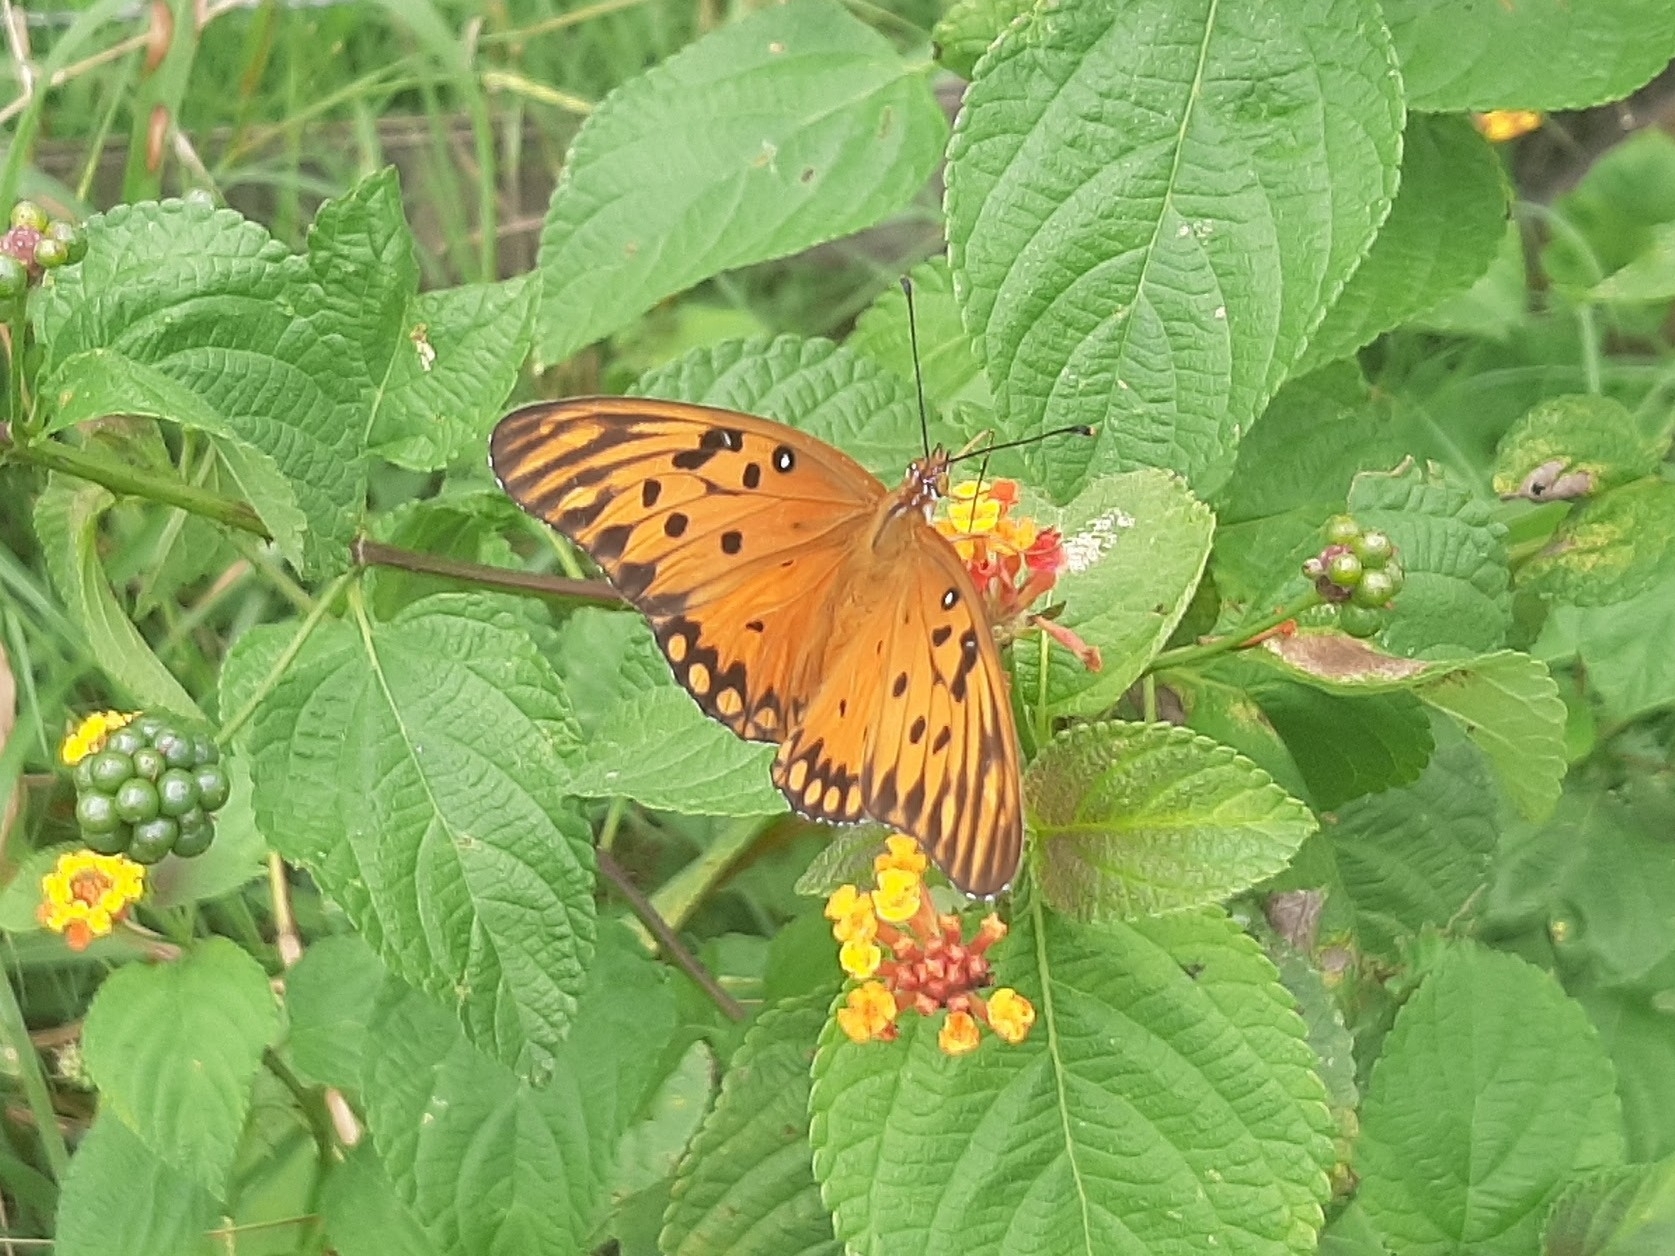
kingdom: Animalia
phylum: Arthropoda
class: Insecta
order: Lepidoptera
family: Nymphalidae
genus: Dione
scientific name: Dione vanillae
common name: Gulf fritillary
